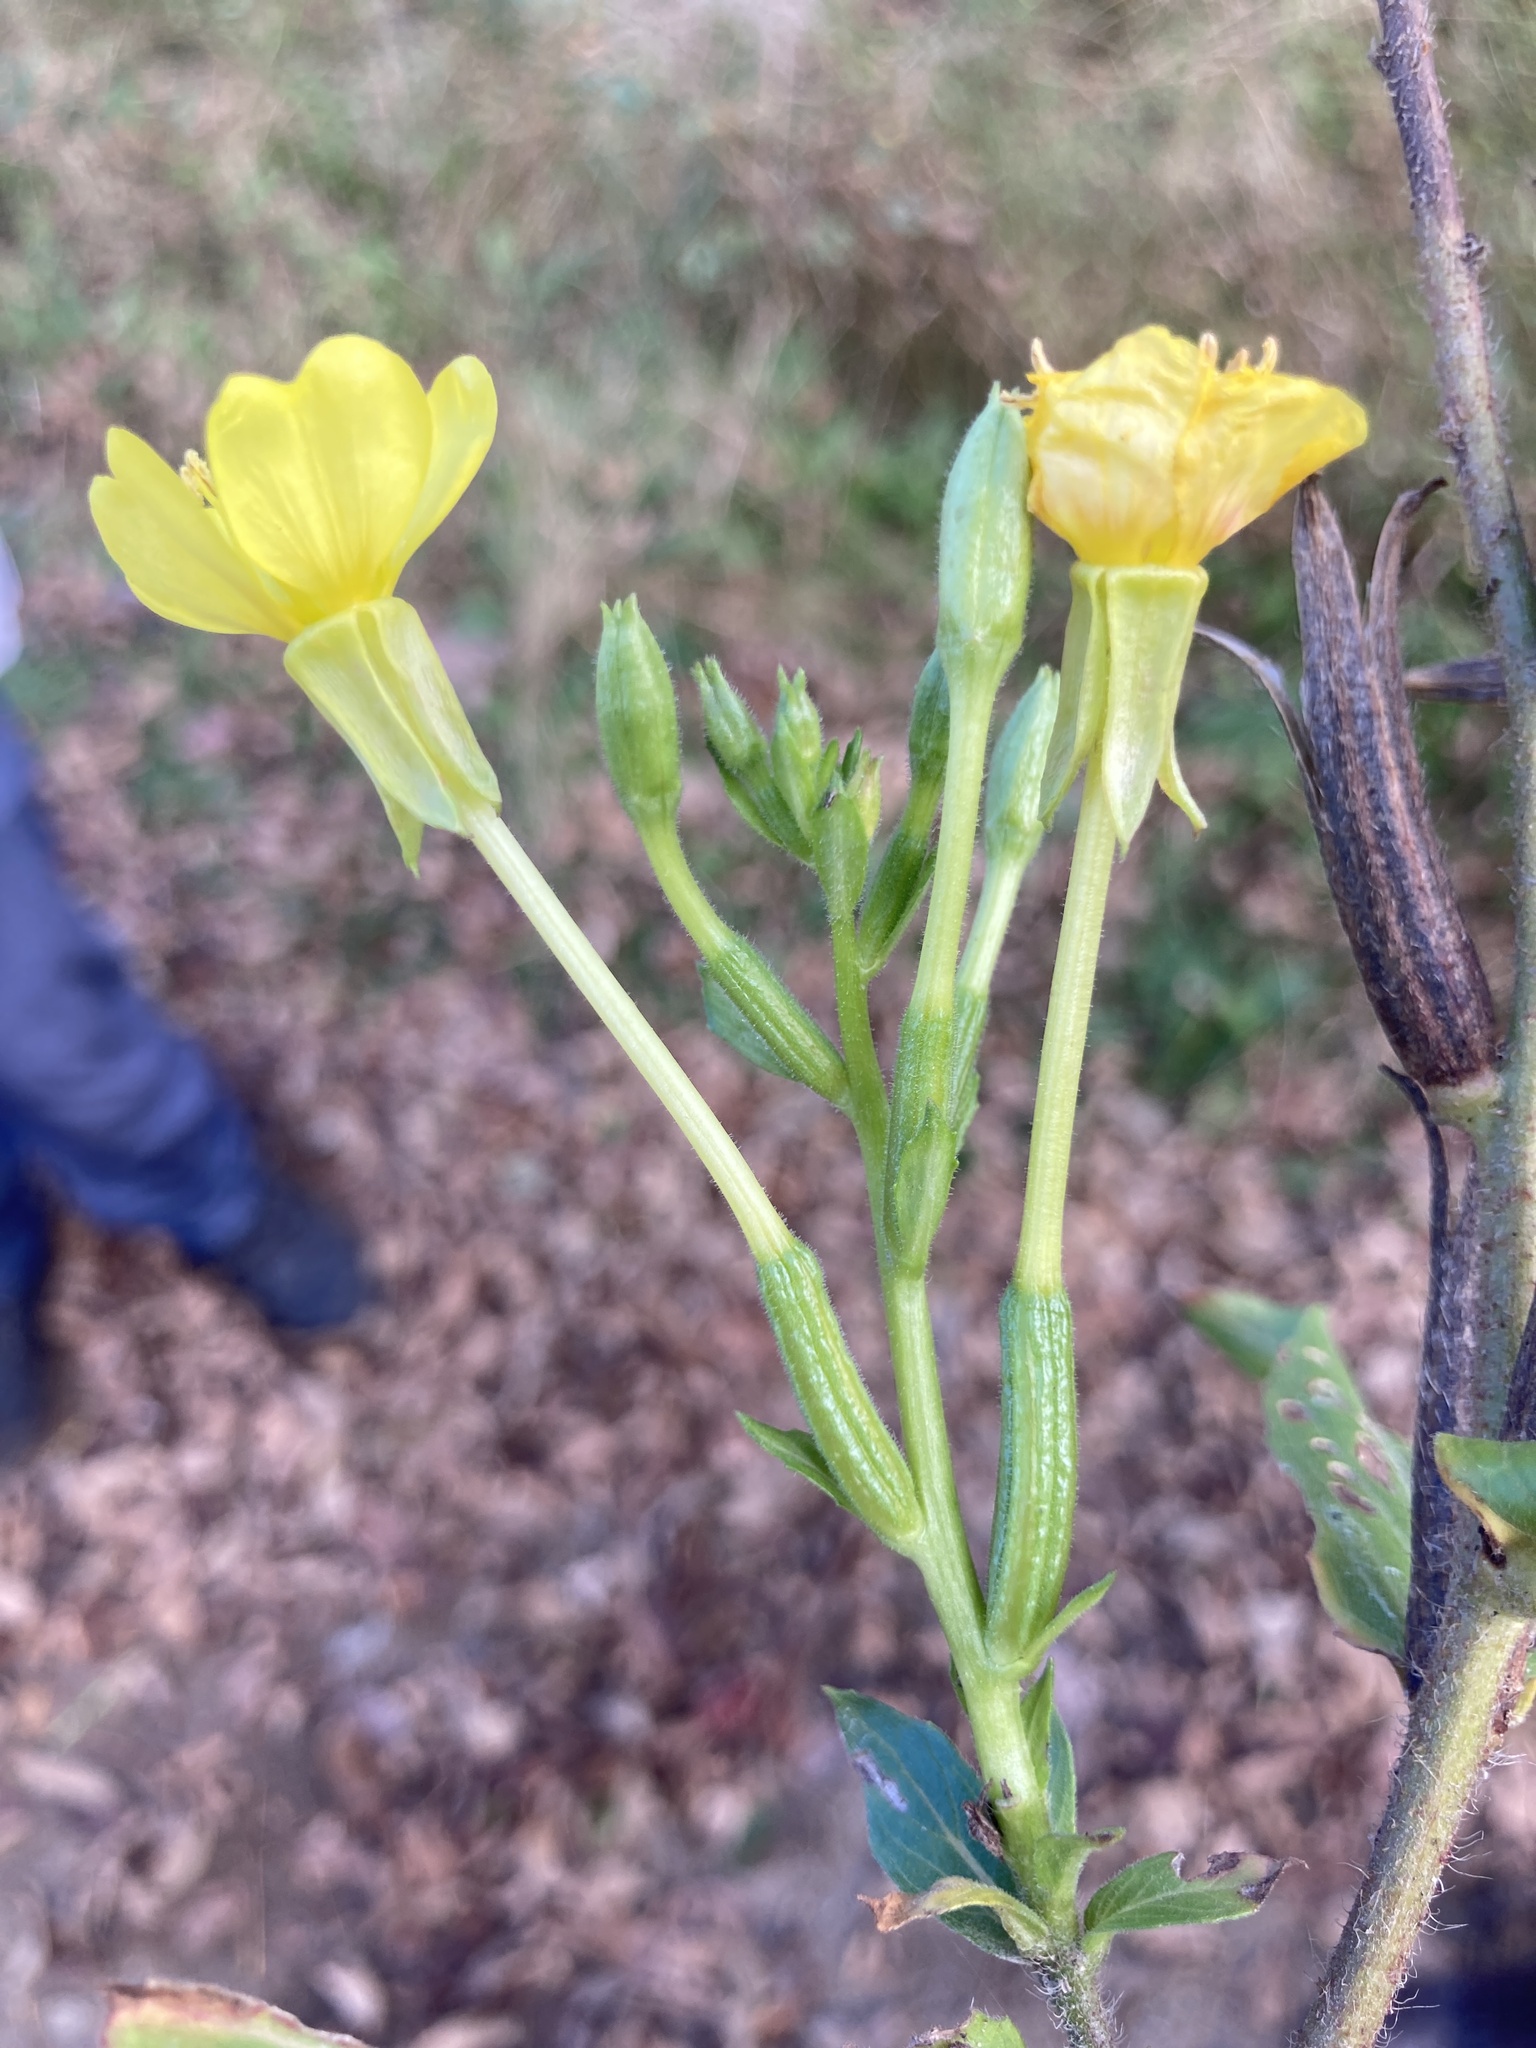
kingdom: Plantae
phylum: Tracheophyta
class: Magnoliopsida
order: Myrtales
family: Onagraceae
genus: Oenothera
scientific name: Oenothera parviflora
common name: Least evening-primrose
